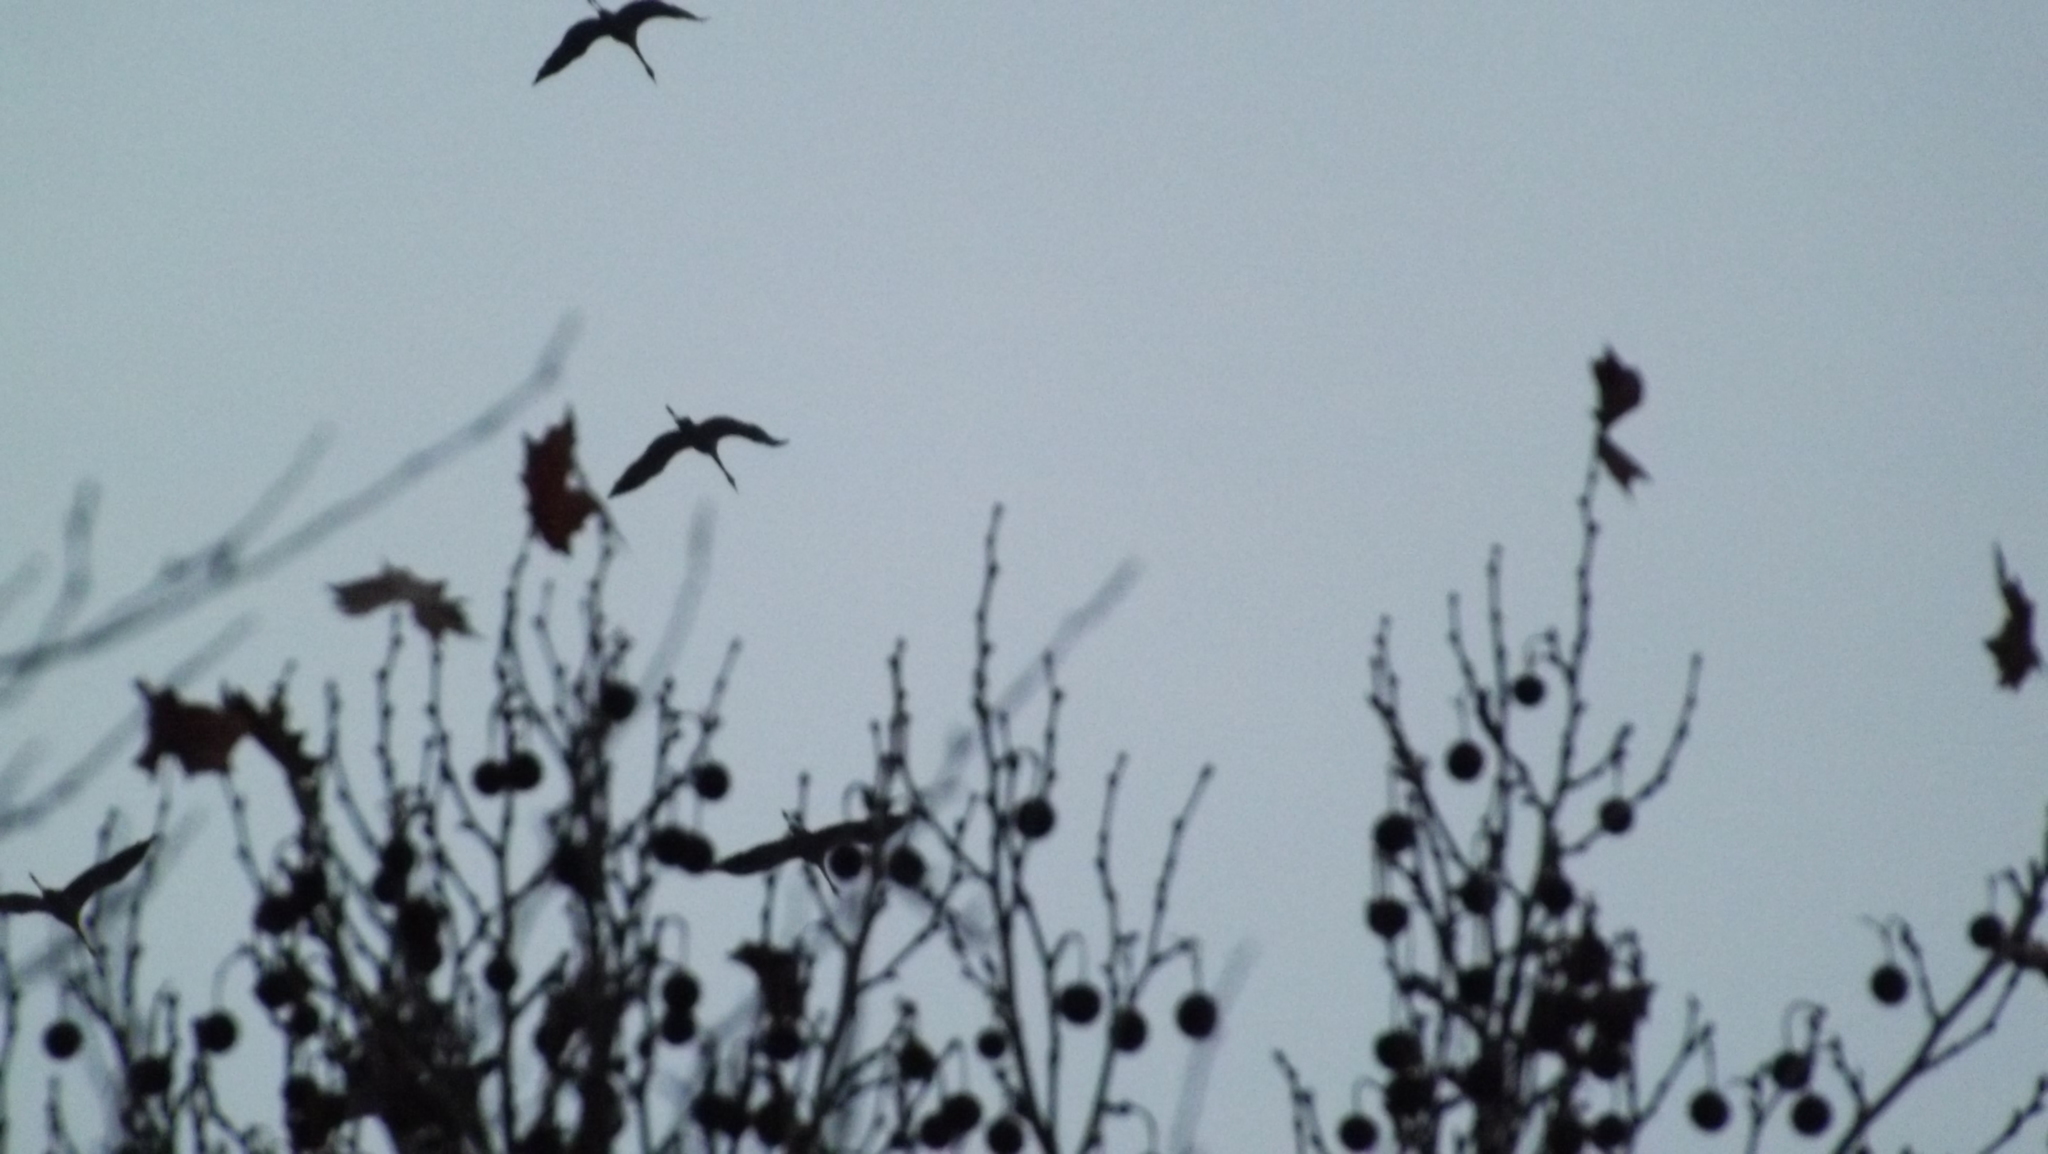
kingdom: Animalia
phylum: Chordata
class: Aves
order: Gruiformes
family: Gruidae
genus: Grus
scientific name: Grus grus
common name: Common crane
